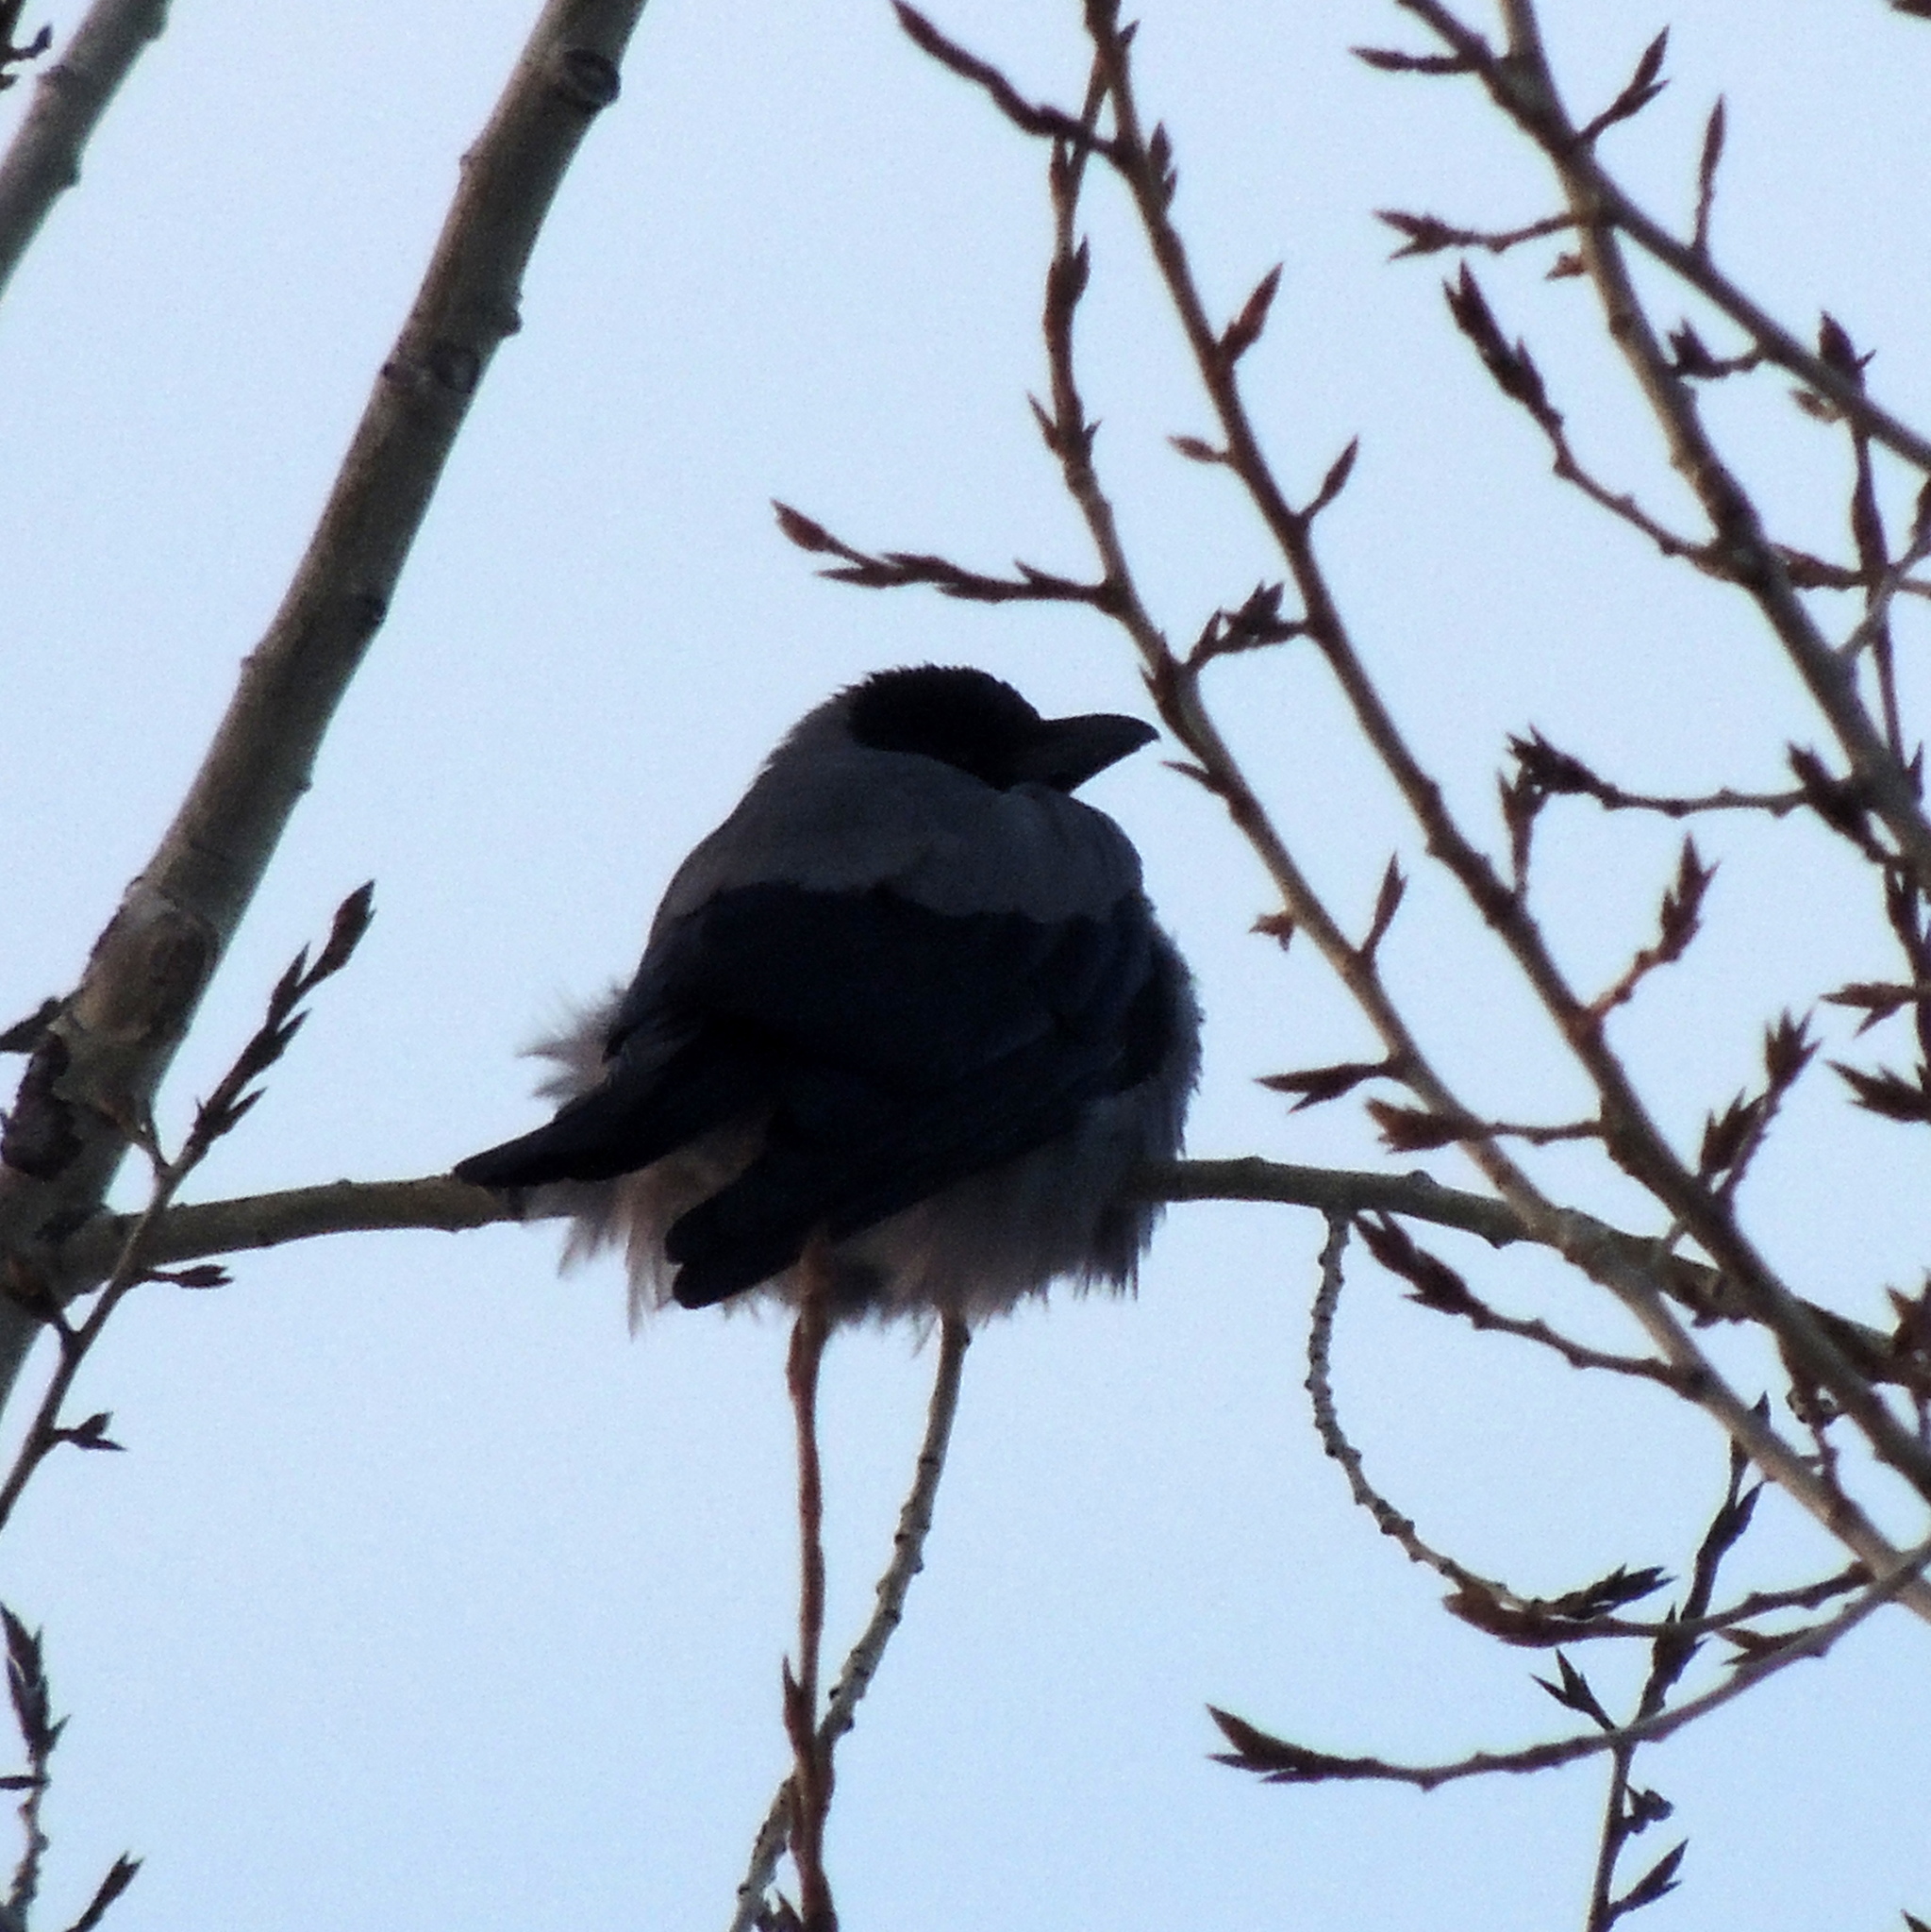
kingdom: Animalia
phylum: Chordata
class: Aves
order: Passeriformes
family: Corvidae
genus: Corvus
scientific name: Corvus cornix
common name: Hooded crow
